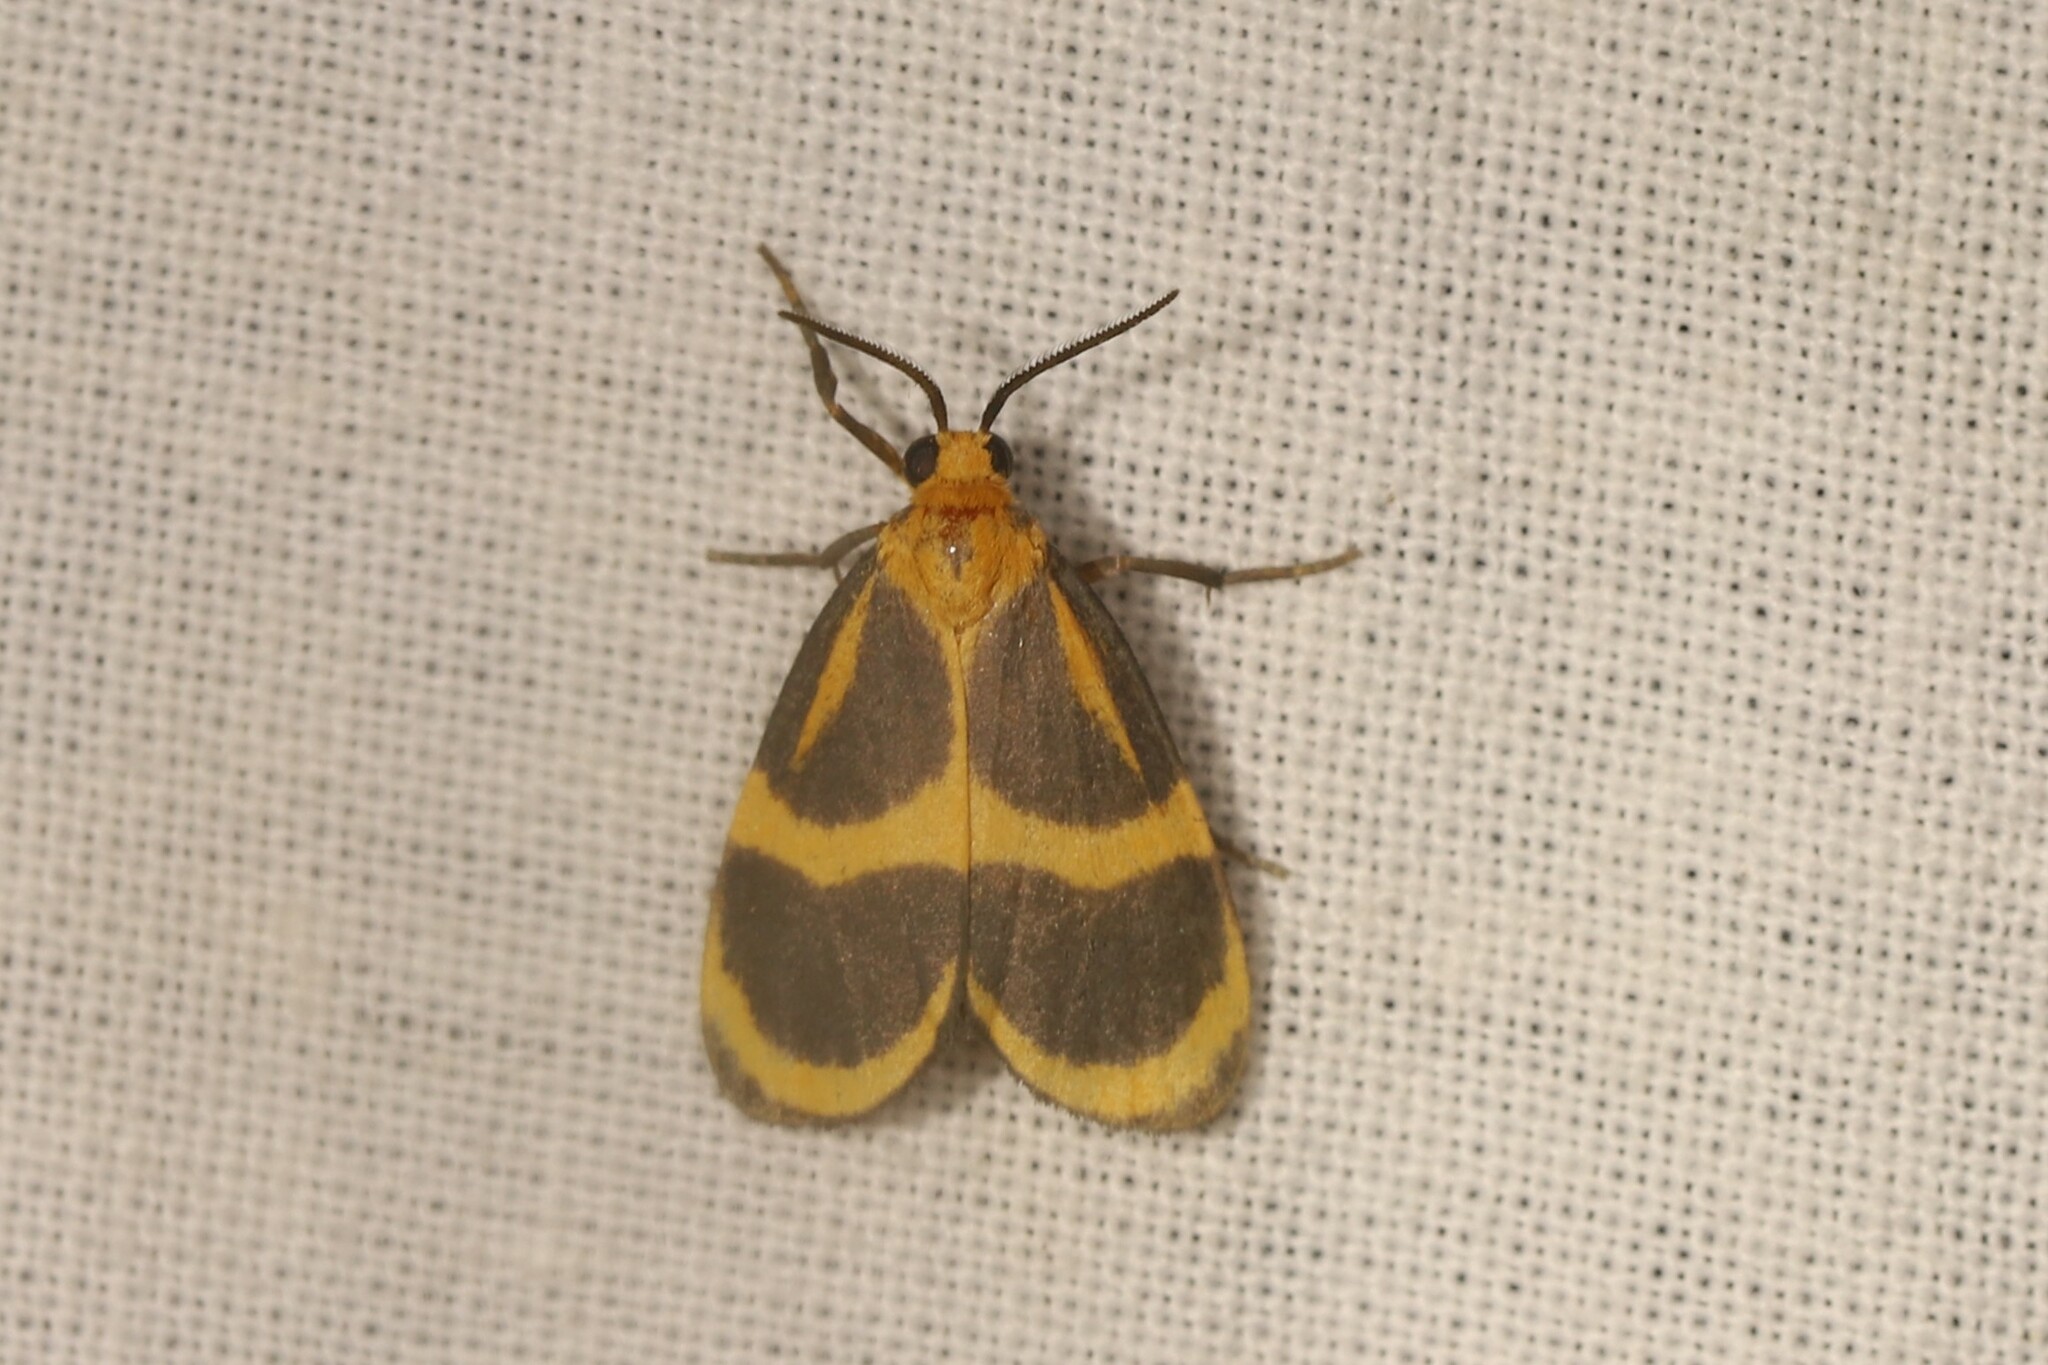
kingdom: Animalia
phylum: Arthropoda
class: Insecta
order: Lepidoptera
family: Erebidae
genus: Eudesmia
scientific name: Eudesmia lunaris
